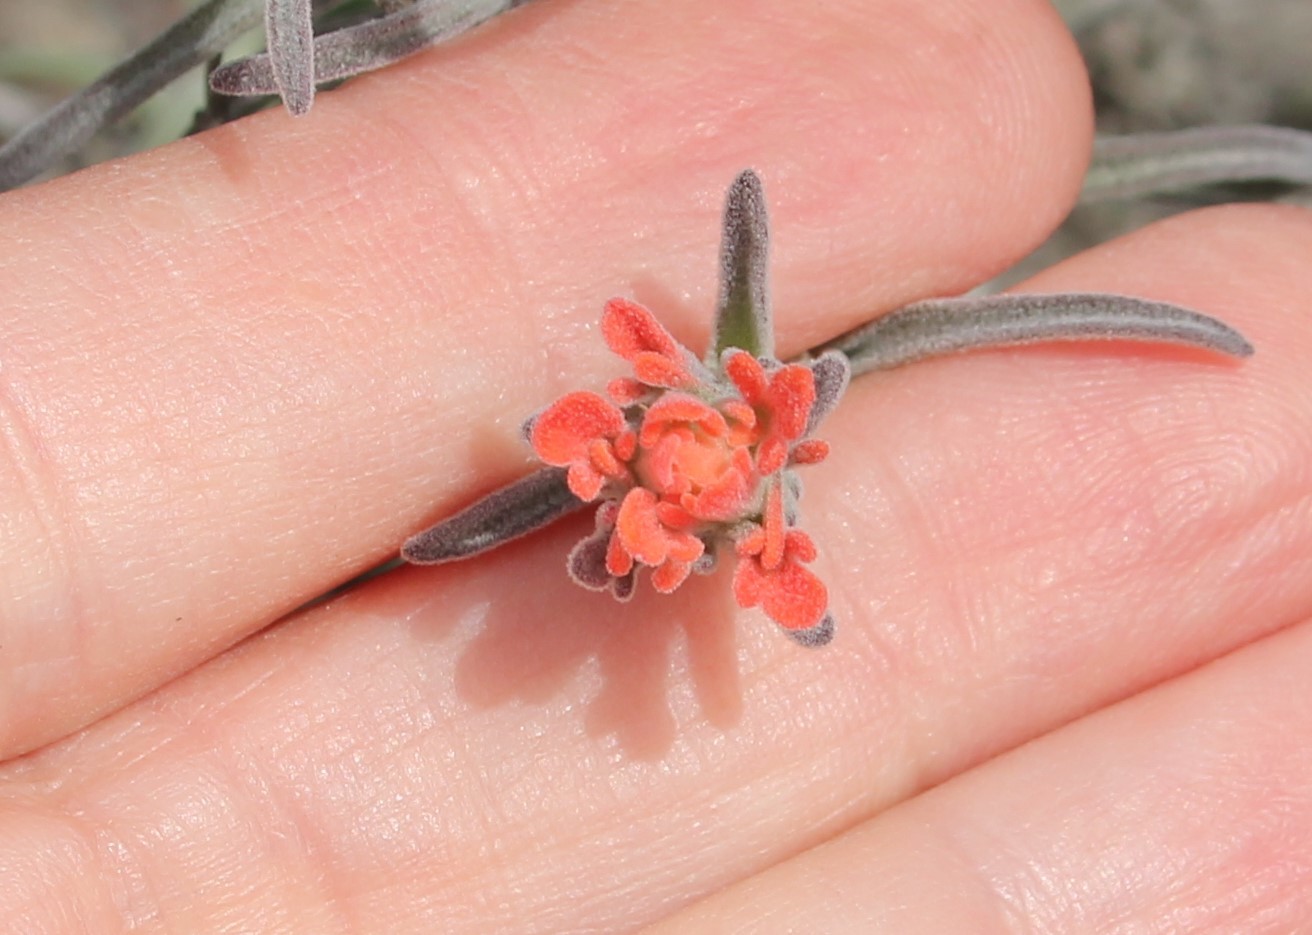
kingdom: Plantae
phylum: Tracheophyta
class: Magnoliopsida
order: Lamiales
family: Orobanchaceae
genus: Castilleja
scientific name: Castilleja foliolosa
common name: Woolly indian paintbrush
